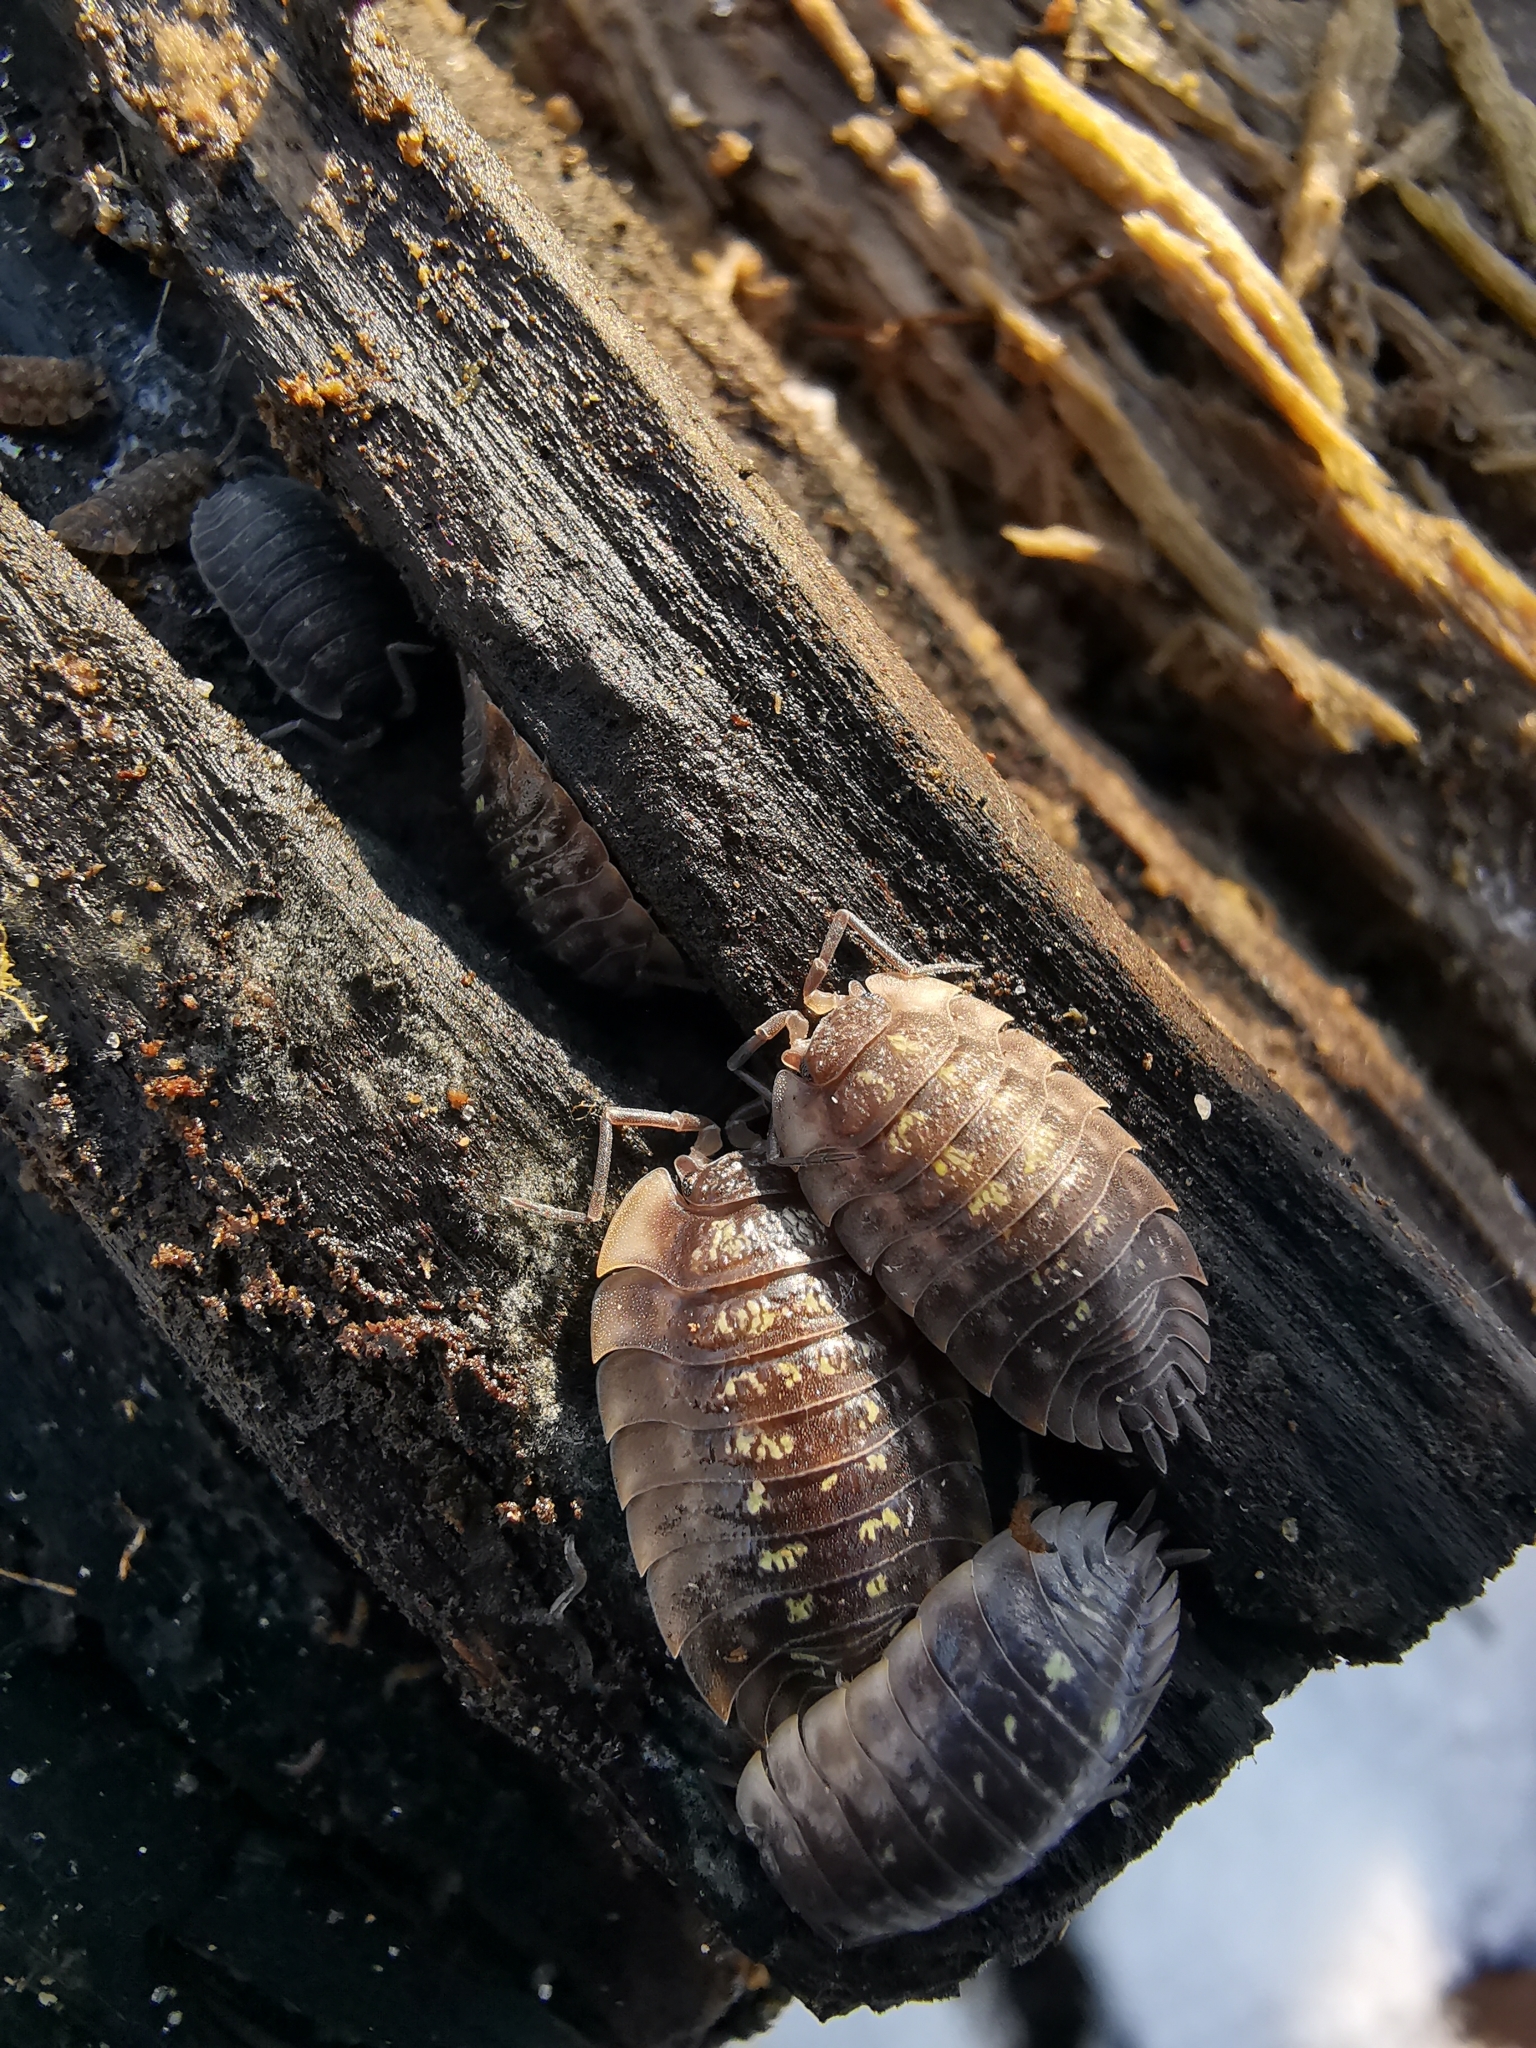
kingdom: Animalia
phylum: Arthropoda
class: Malacostraca
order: Isopoda
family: Oniscidae
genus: Oniscus
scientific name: Oniscus asellus
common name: Common shiny woodlouse
